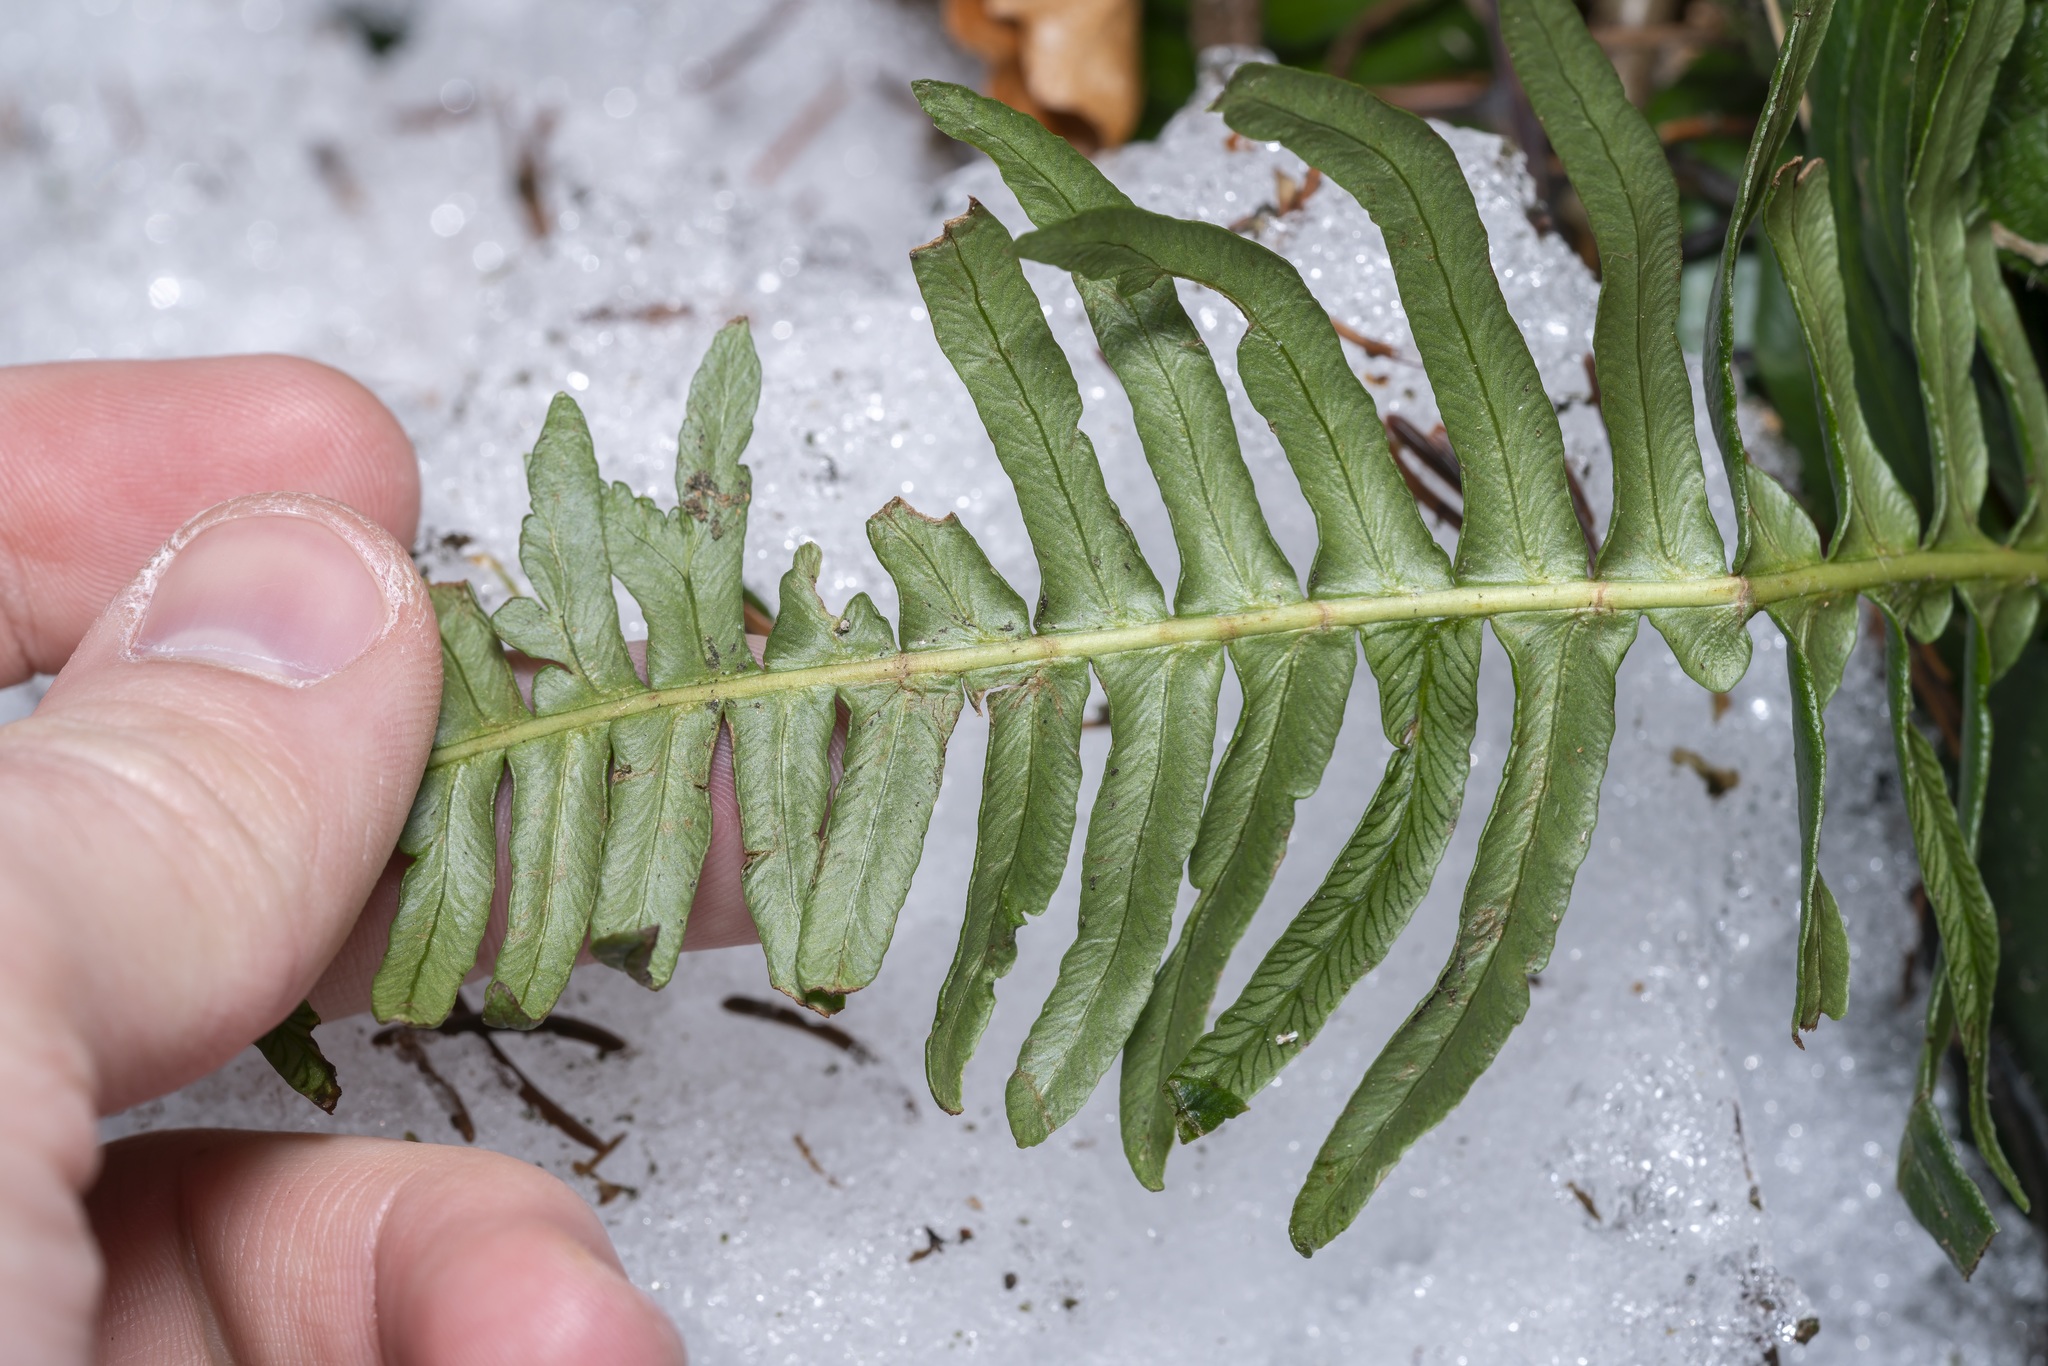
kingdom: Plantae
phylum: Tracheophyta
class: Polypodiopsida
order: Polypodiales
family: Blechnaceae
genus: Struthiopteris
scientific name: Struthiopteris spicant
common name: Deer fern
